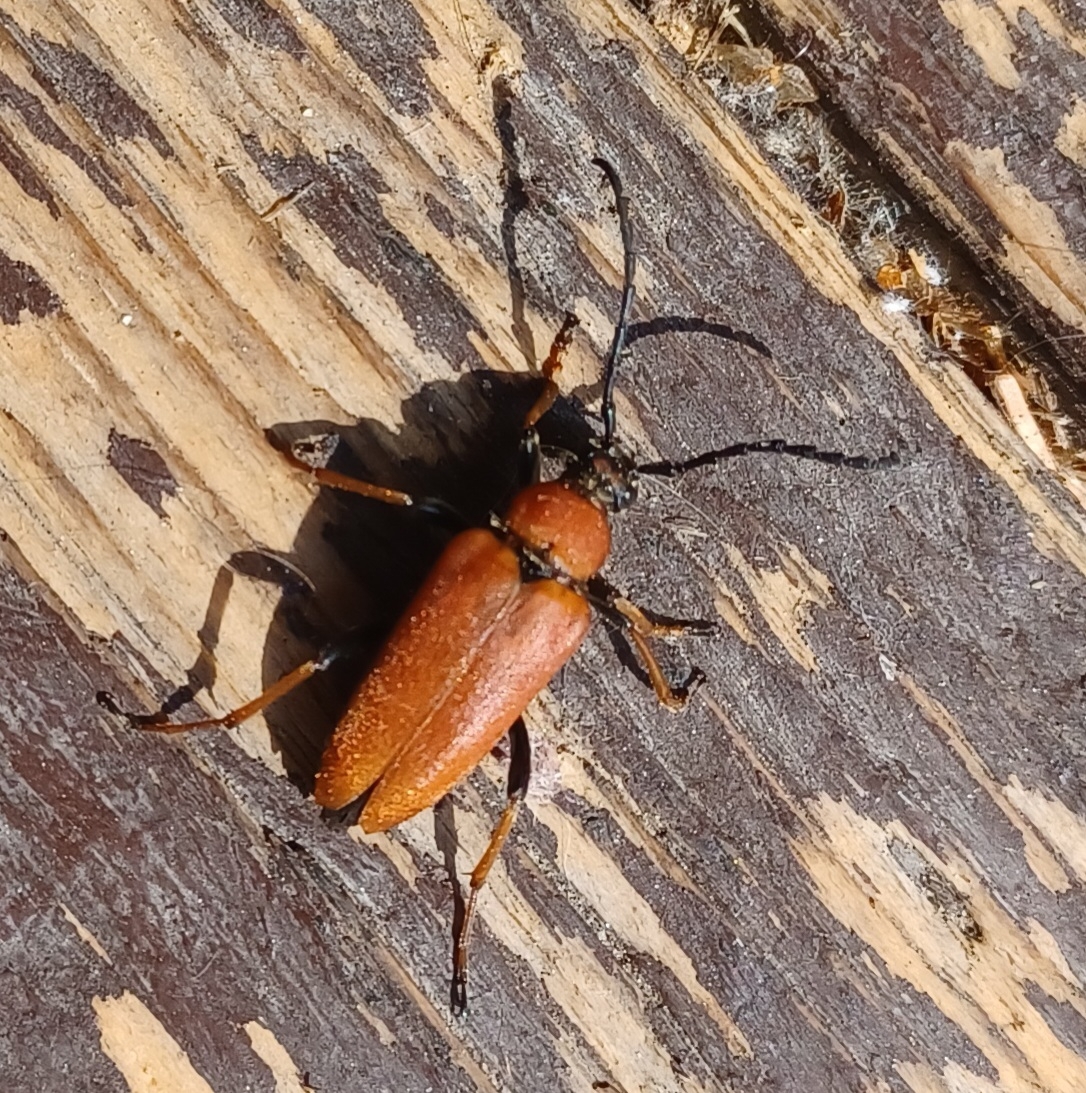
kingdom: Animalia
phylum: Arthropoda
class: Insecta
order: Coleoptera
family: Cerambycidae
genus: Stictoleptura
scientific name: Stictoleptura rubra
